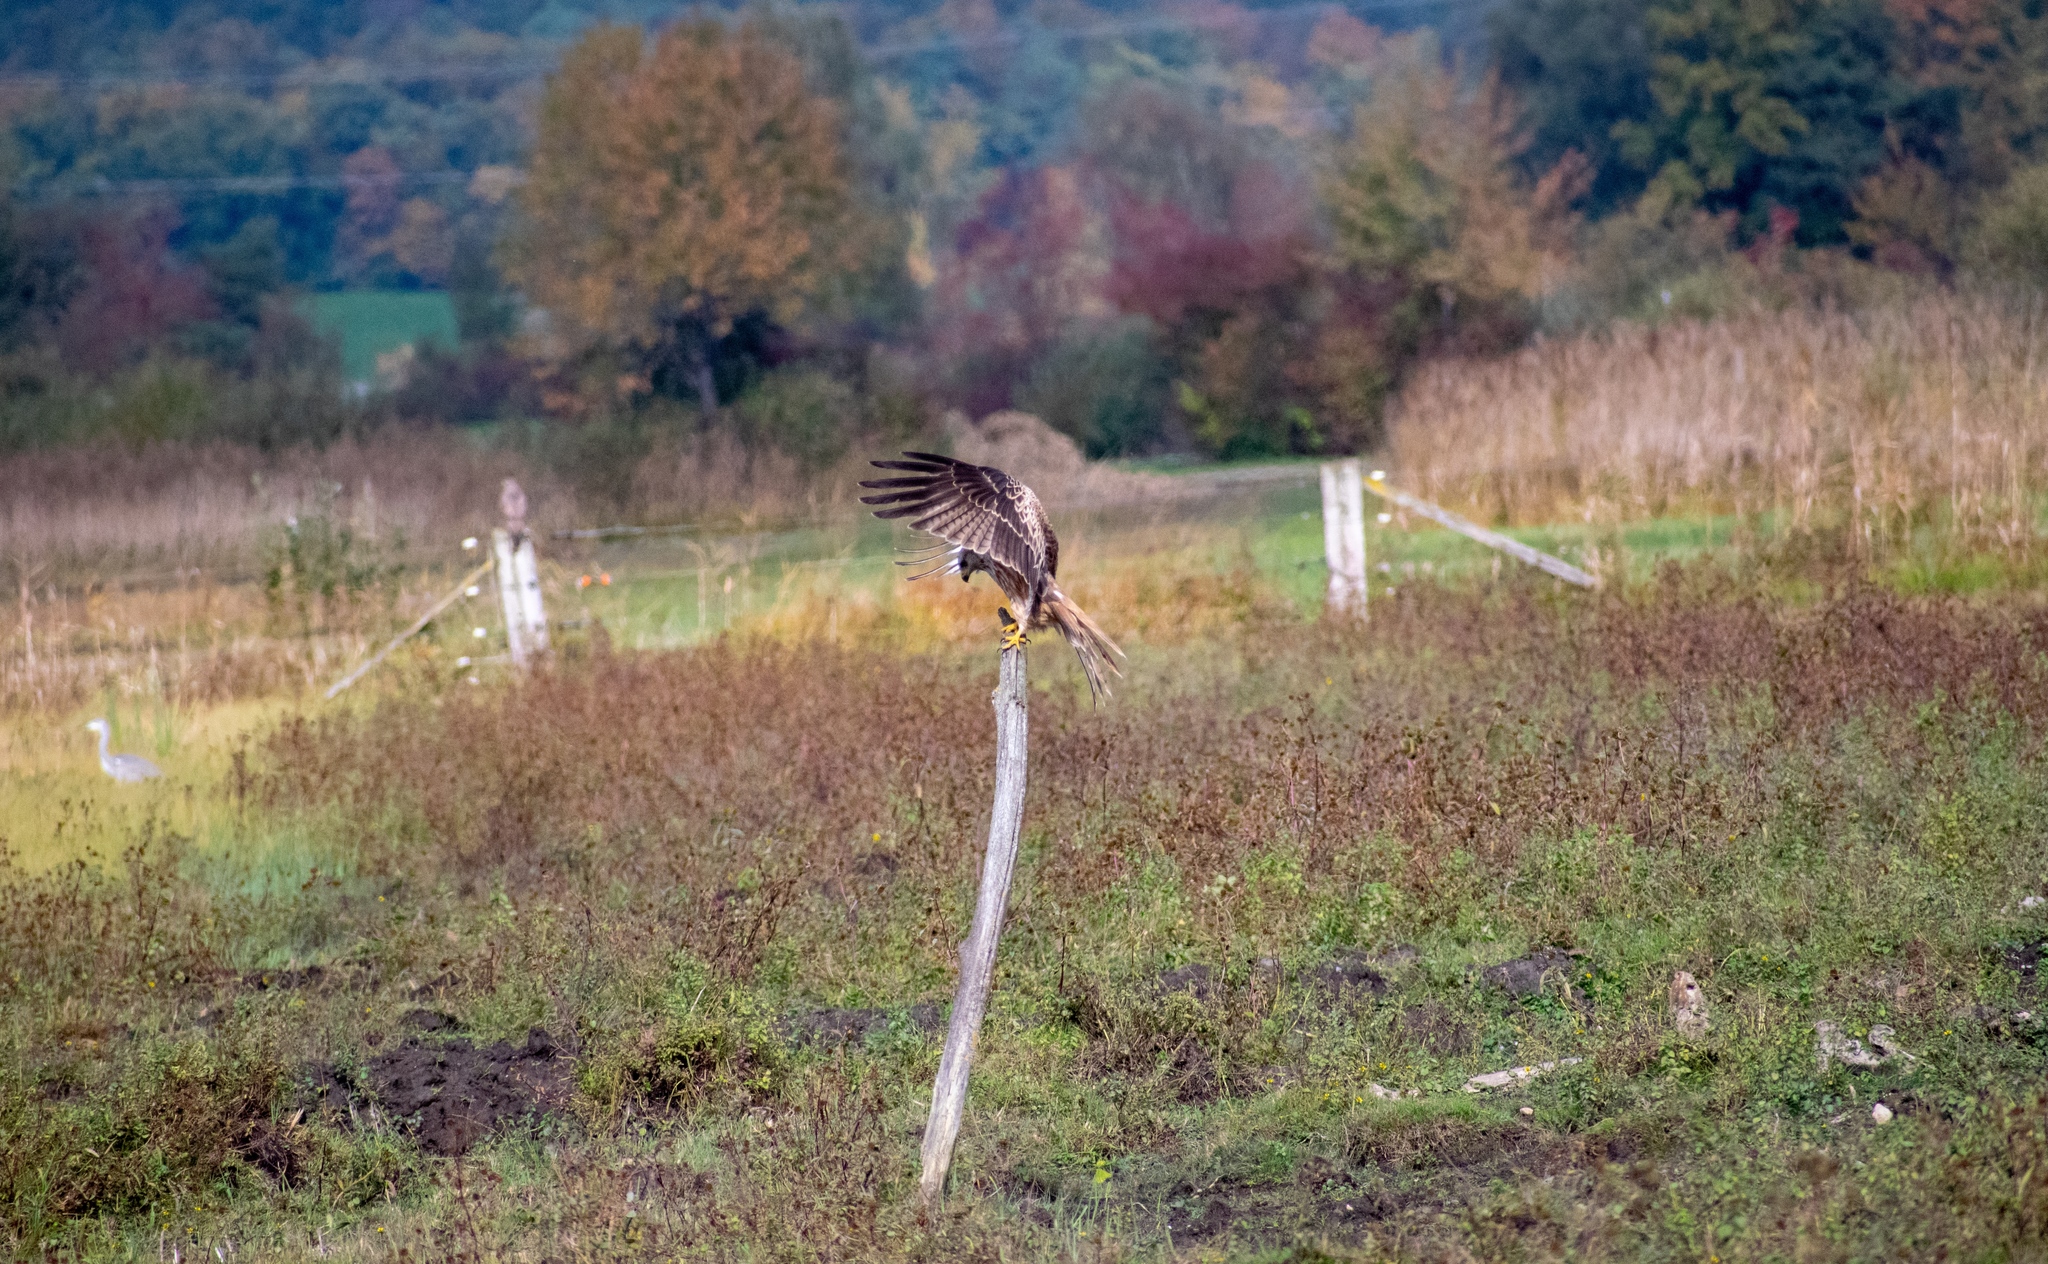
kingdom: Animalia
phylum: Chordata
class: Aves
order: Accipitriformes
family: Accipitridae
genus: Milvus
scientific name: Milvus milvus
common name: Red kite
